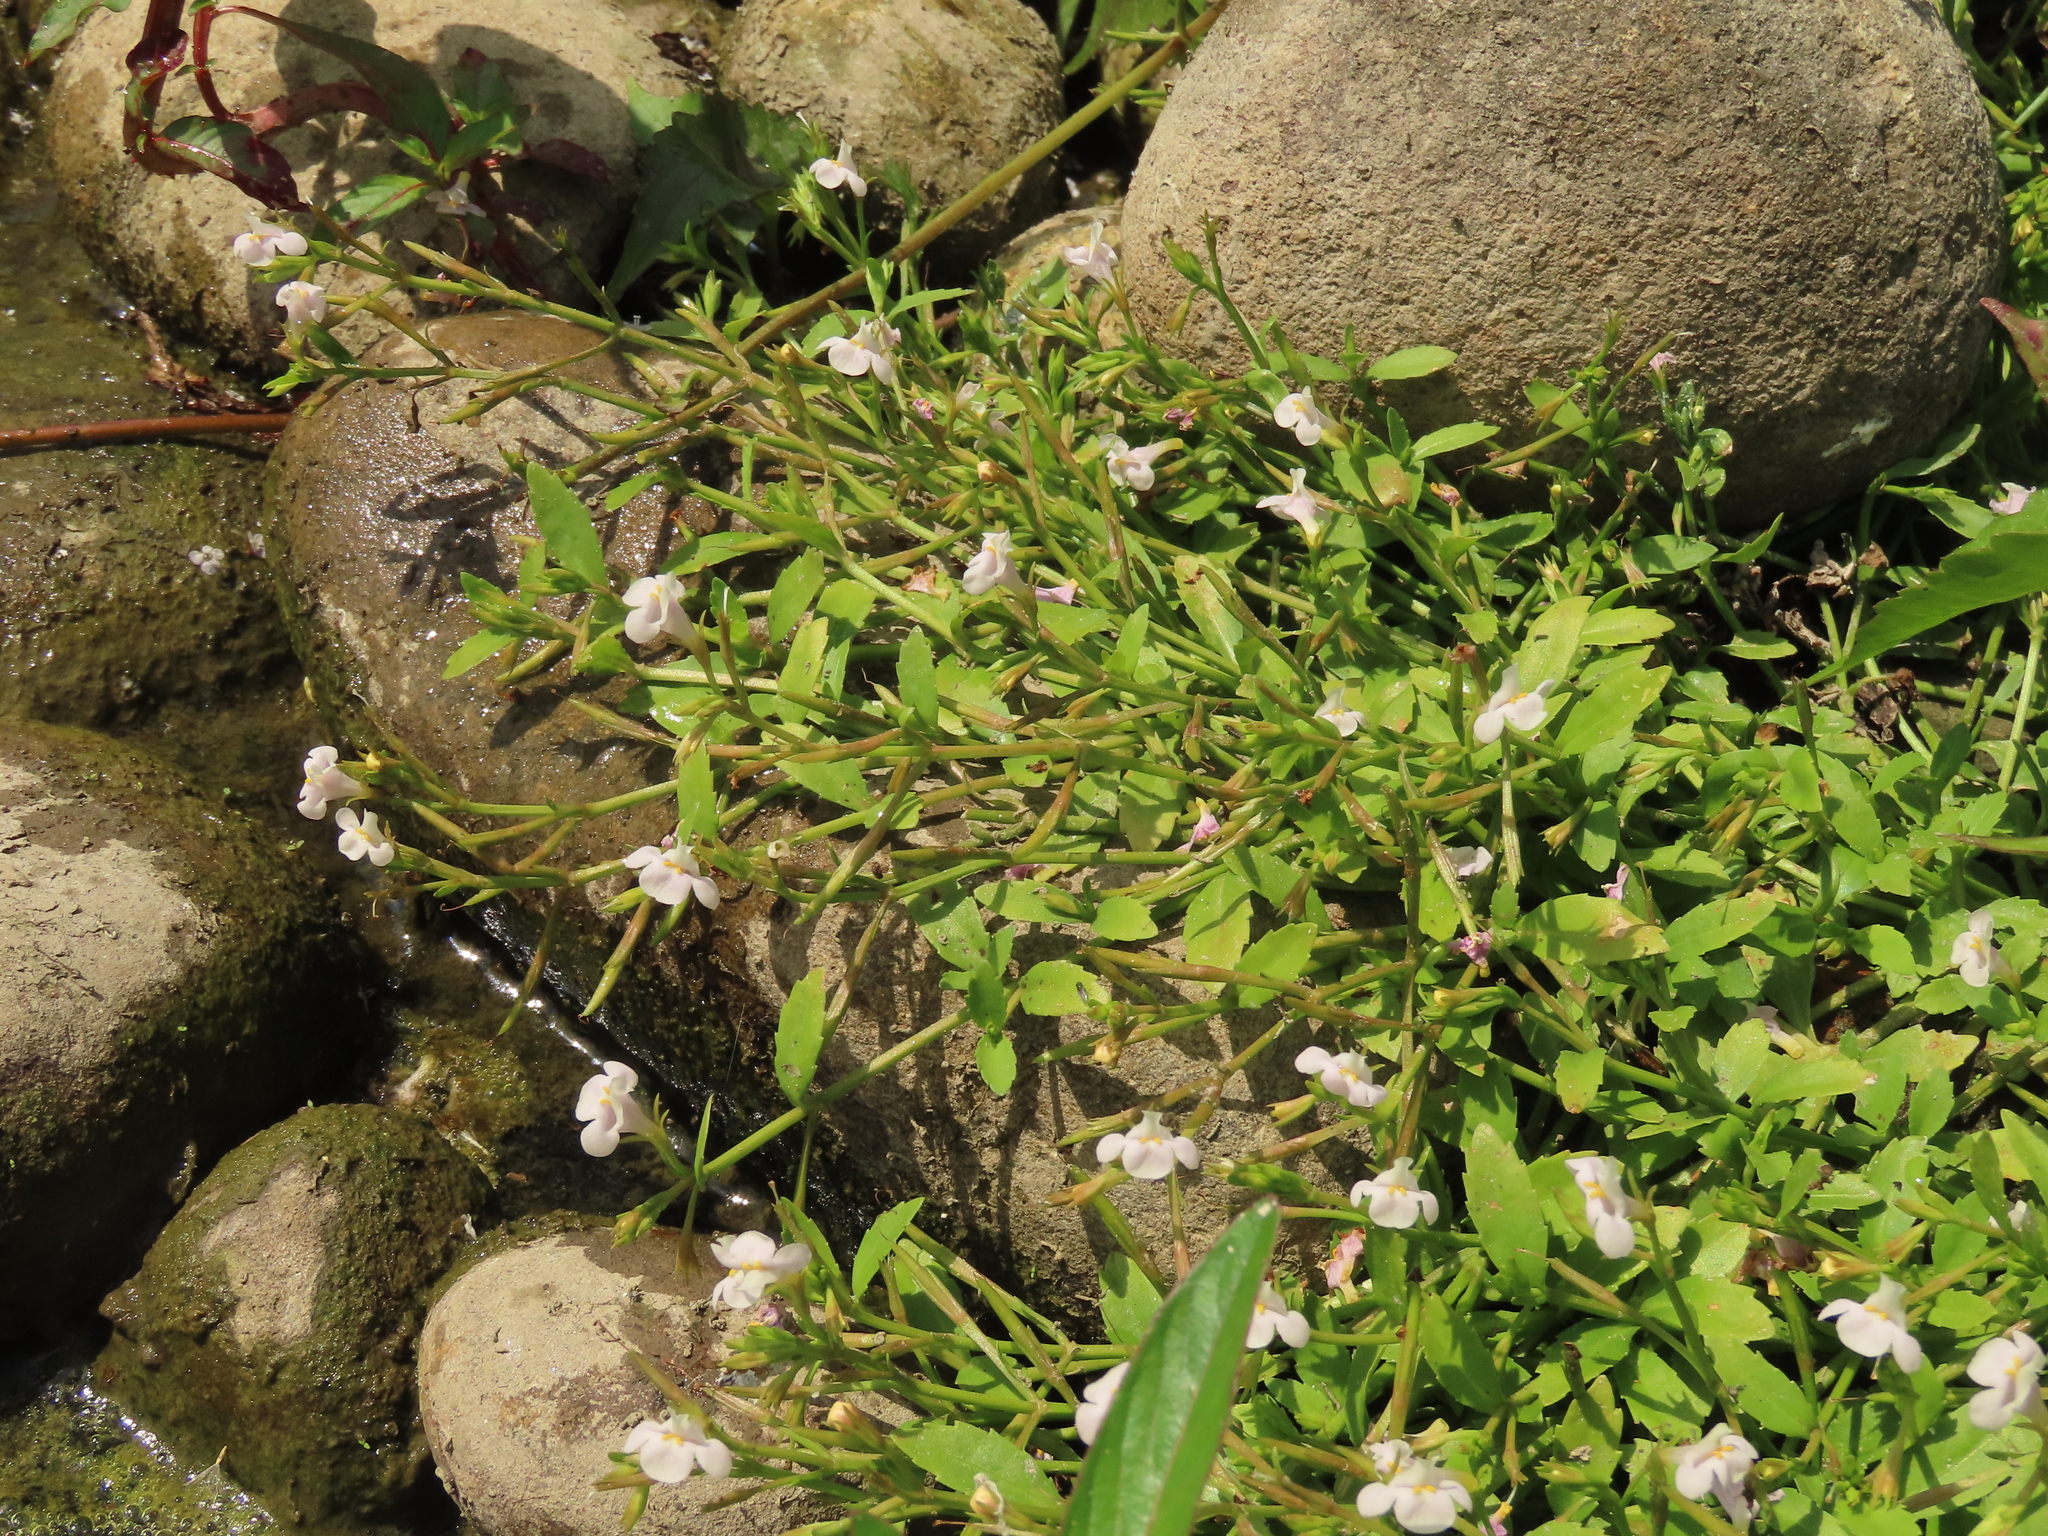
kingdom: Plantae
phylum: Tracheophyta
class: Magnoliopsida
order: Lamiales
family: Linderniaceae
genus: Bonnaya
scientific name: Bonnaya antipoda
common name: Sparrow false pimpernel
